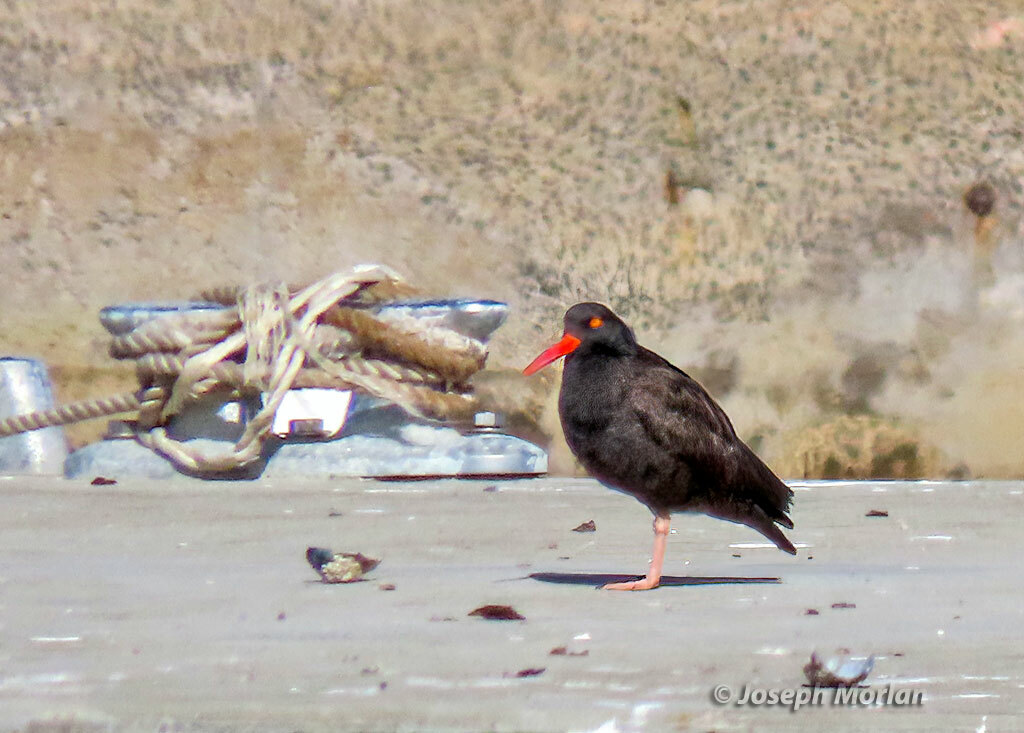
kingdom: Animalia
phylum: Chordata
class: Aves
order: Charadriiformes
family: Haematopodidae
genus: Haematopus
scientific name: Haematopus bachmani
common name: Black oystercatcher
